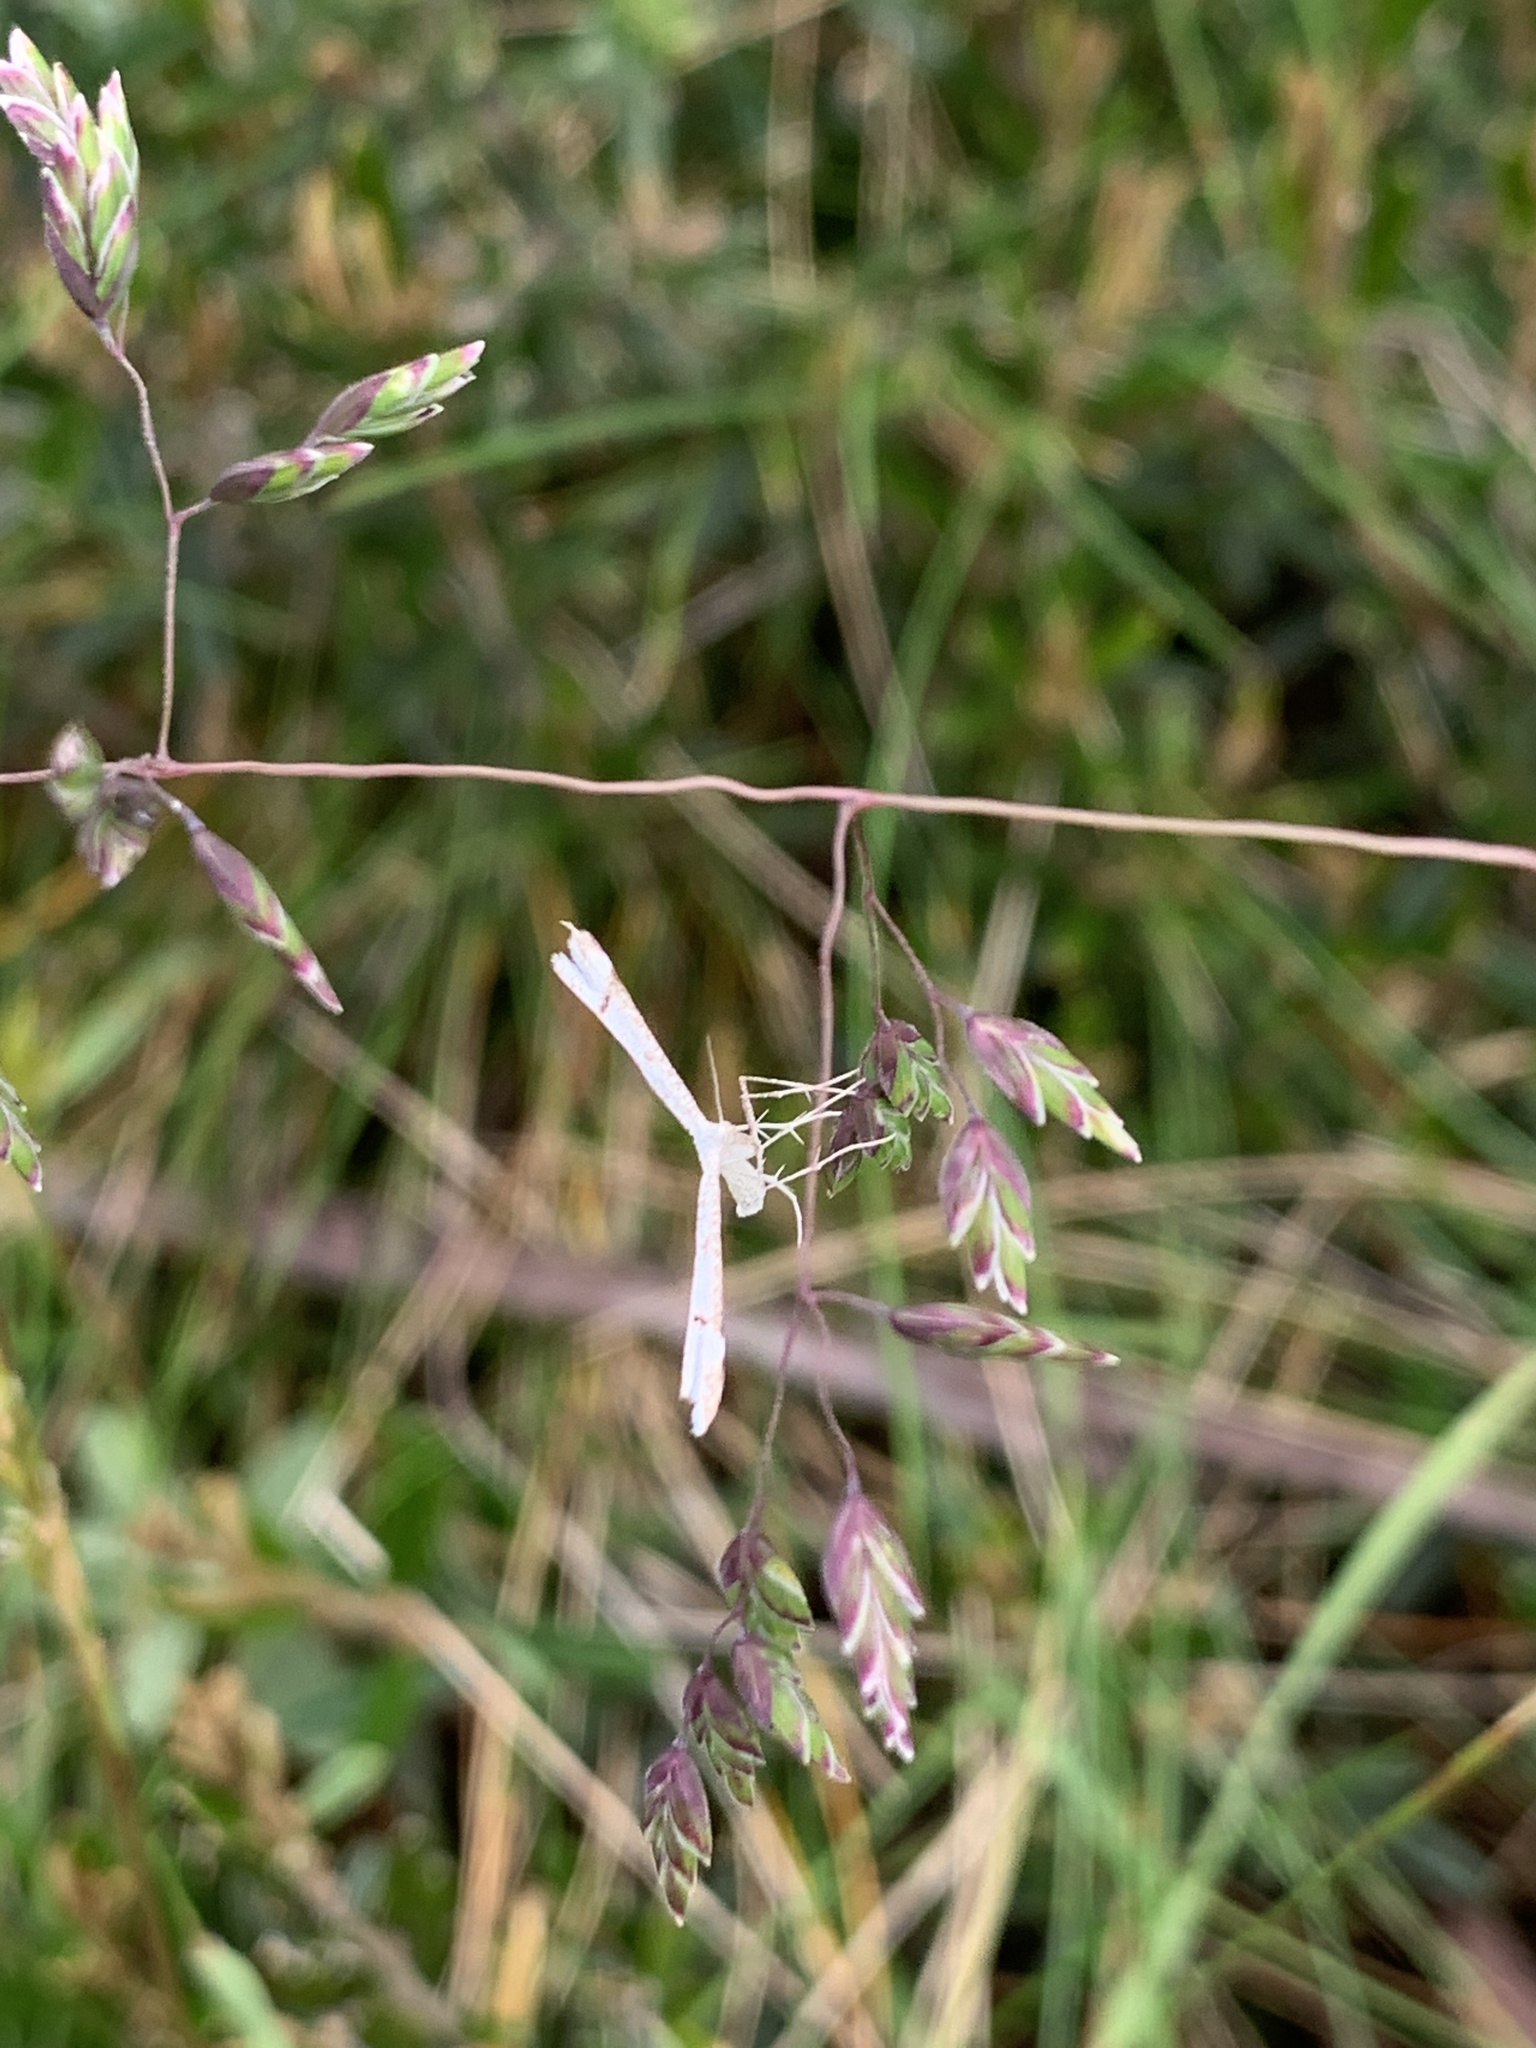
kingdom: Animalia
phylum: Arthropoda
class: Insecta
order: Lepidoptera
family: Pterophoridae
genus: Stenoptilia
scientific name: Stenoptilia phaeonephes
